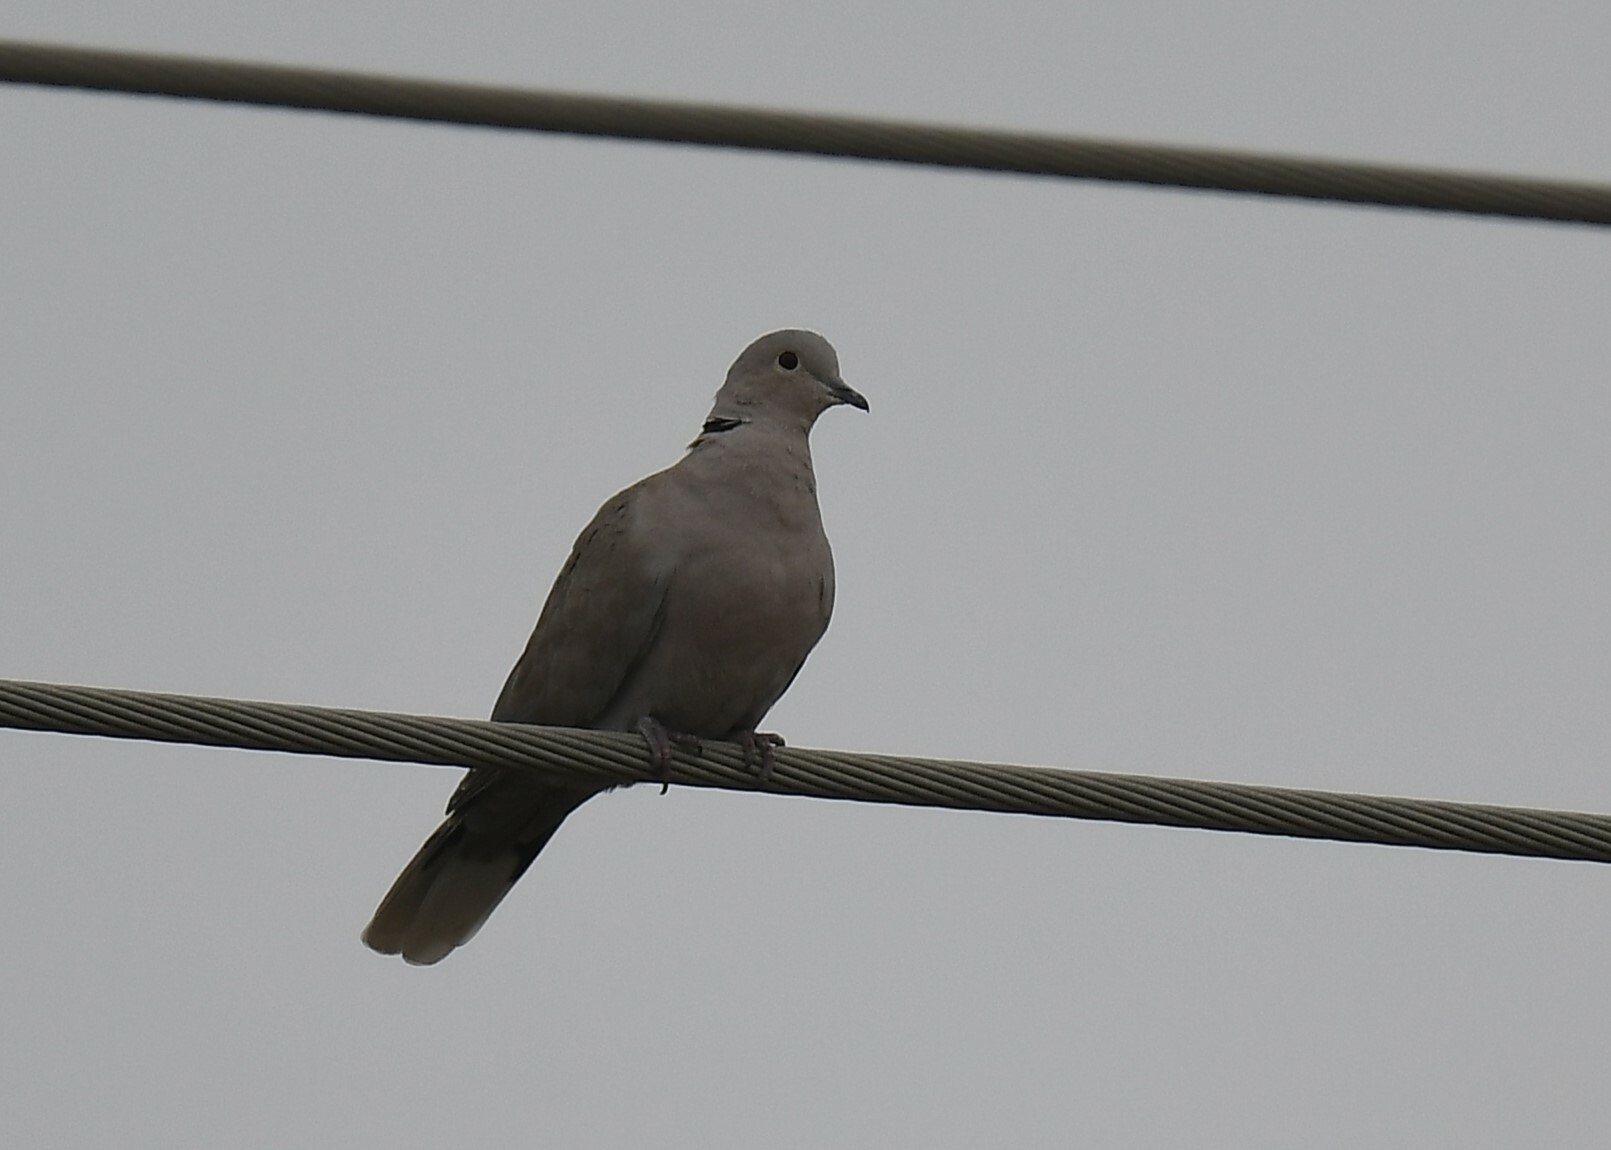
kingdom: Animalia
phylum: Chordata
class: Aves
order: Columbiformes
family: Columbidae
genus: Streptopelia
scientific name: Streptopelia decaocto
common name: Eurasian collared dove
